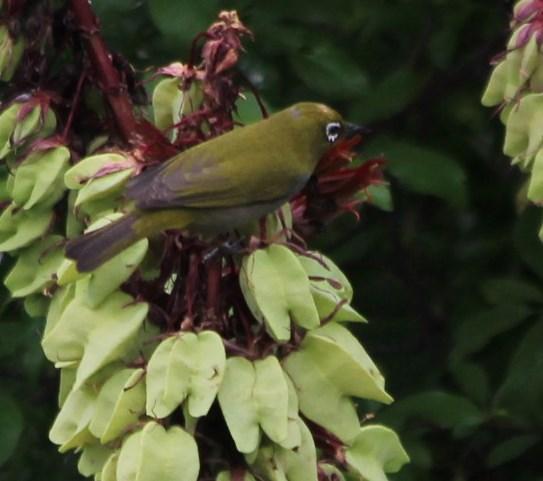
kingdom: Animalia
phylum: Chordata
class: Aves
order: Passeriformes
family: Zosteropidae
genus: Zosterops
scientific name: Zosterops virens
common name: Cape white-eye
